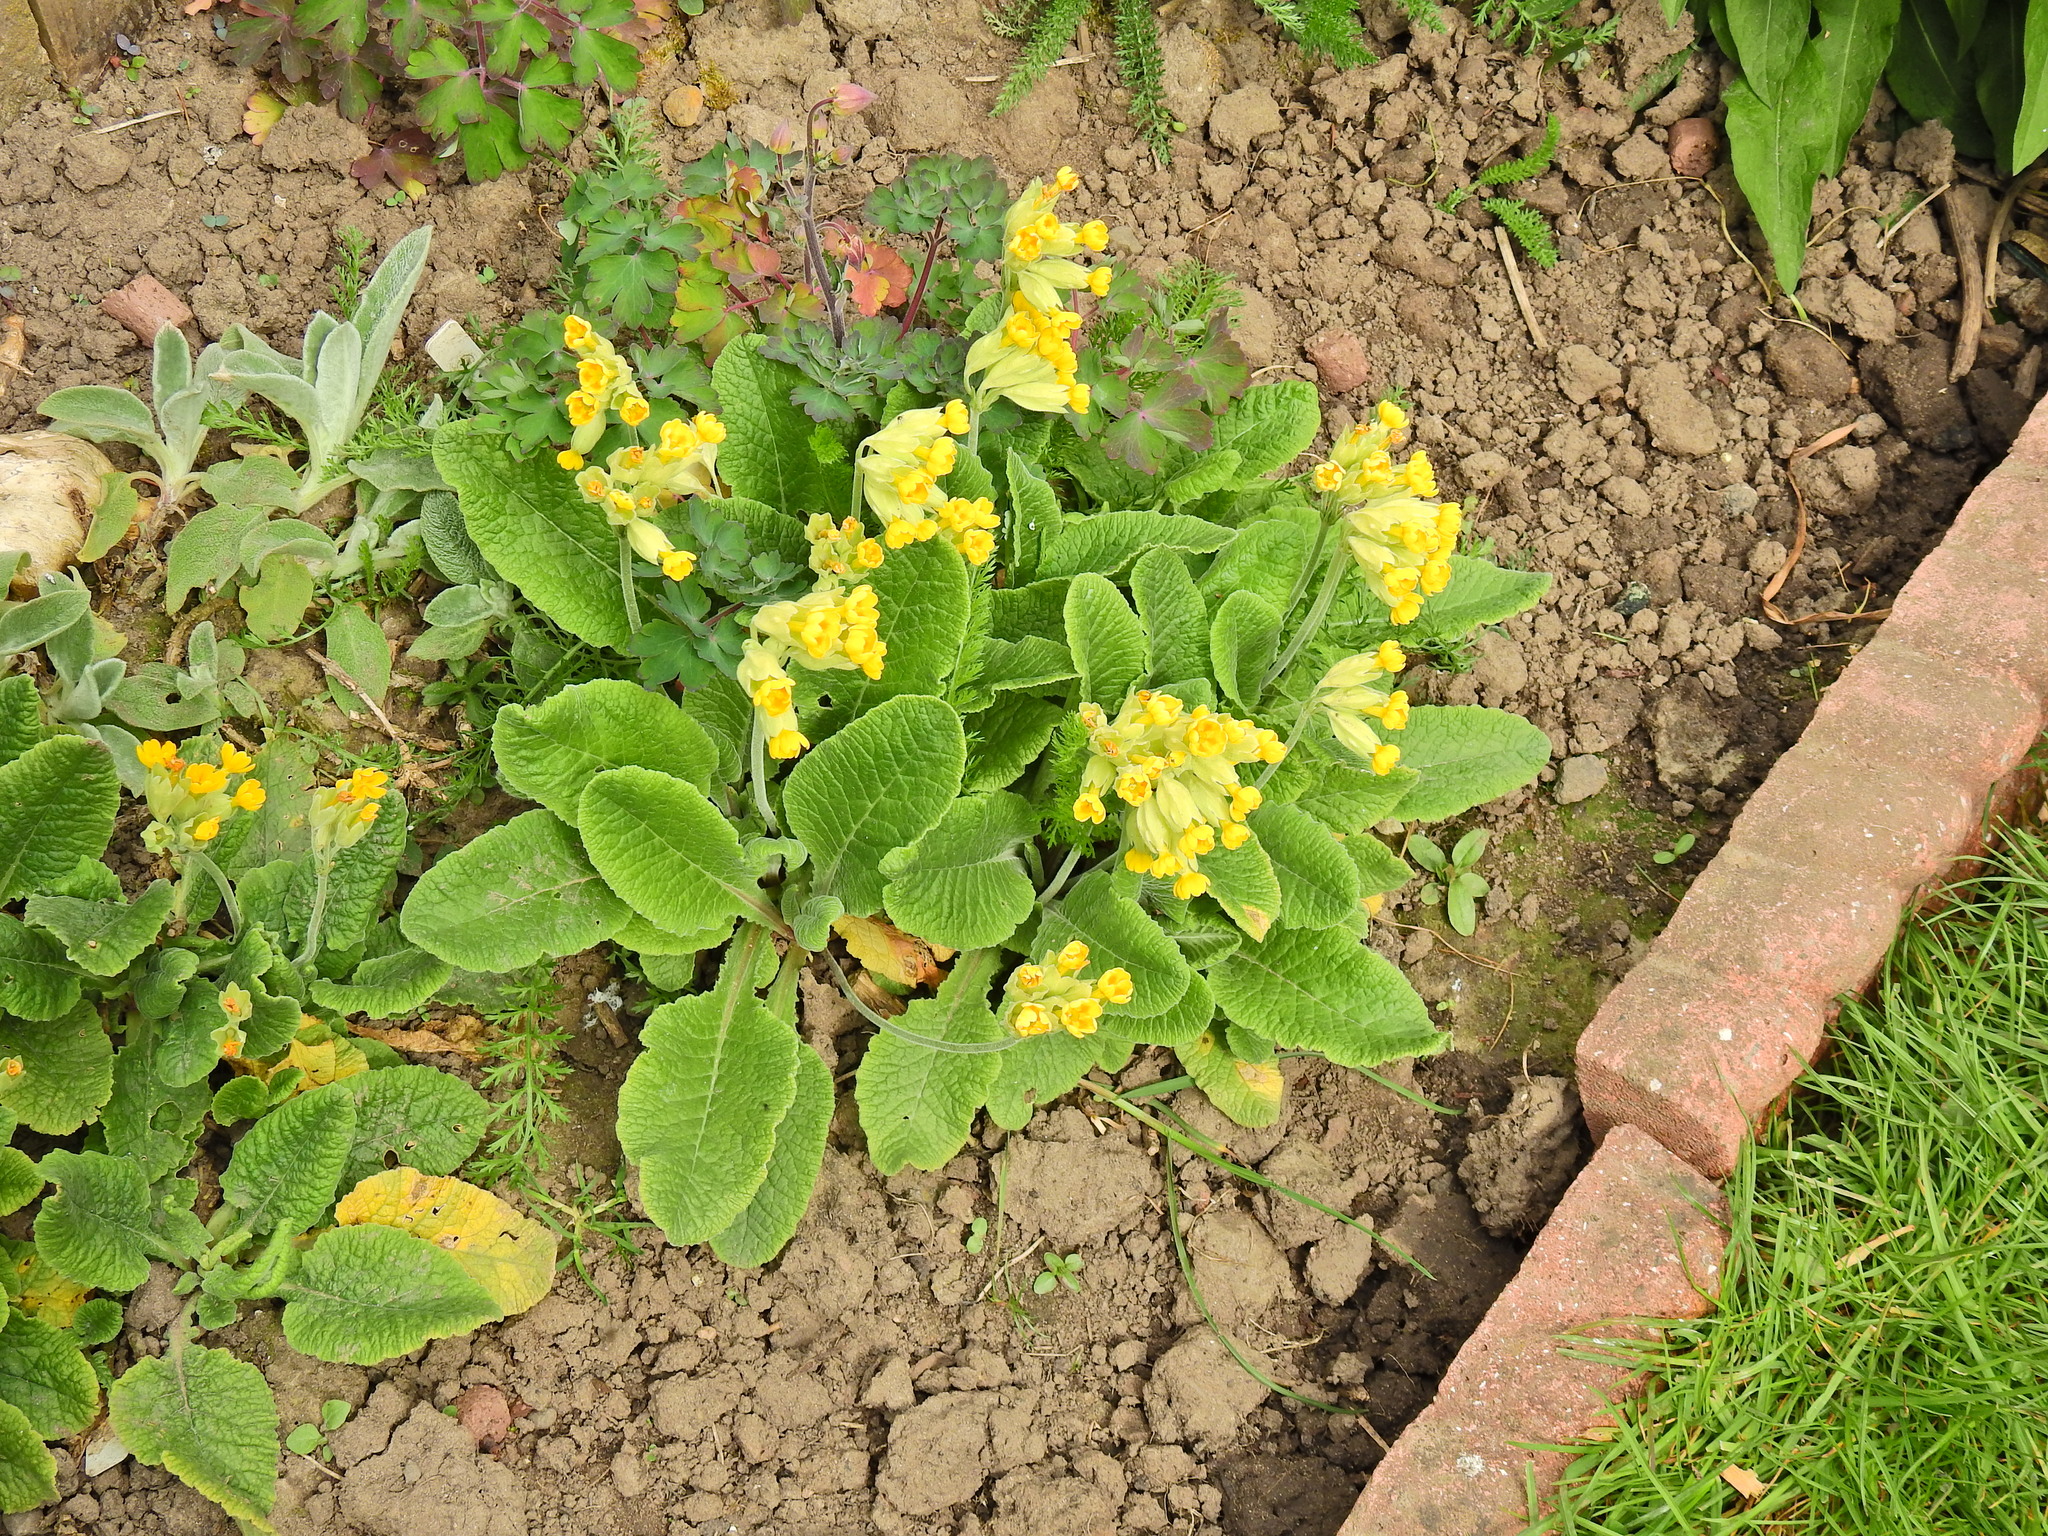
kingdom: Plantae
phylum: Tracheophyta
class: Magnoliopsida
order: Ericales
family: Primulaceae
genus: Primula
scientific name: Primula veris
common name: Cowslip
